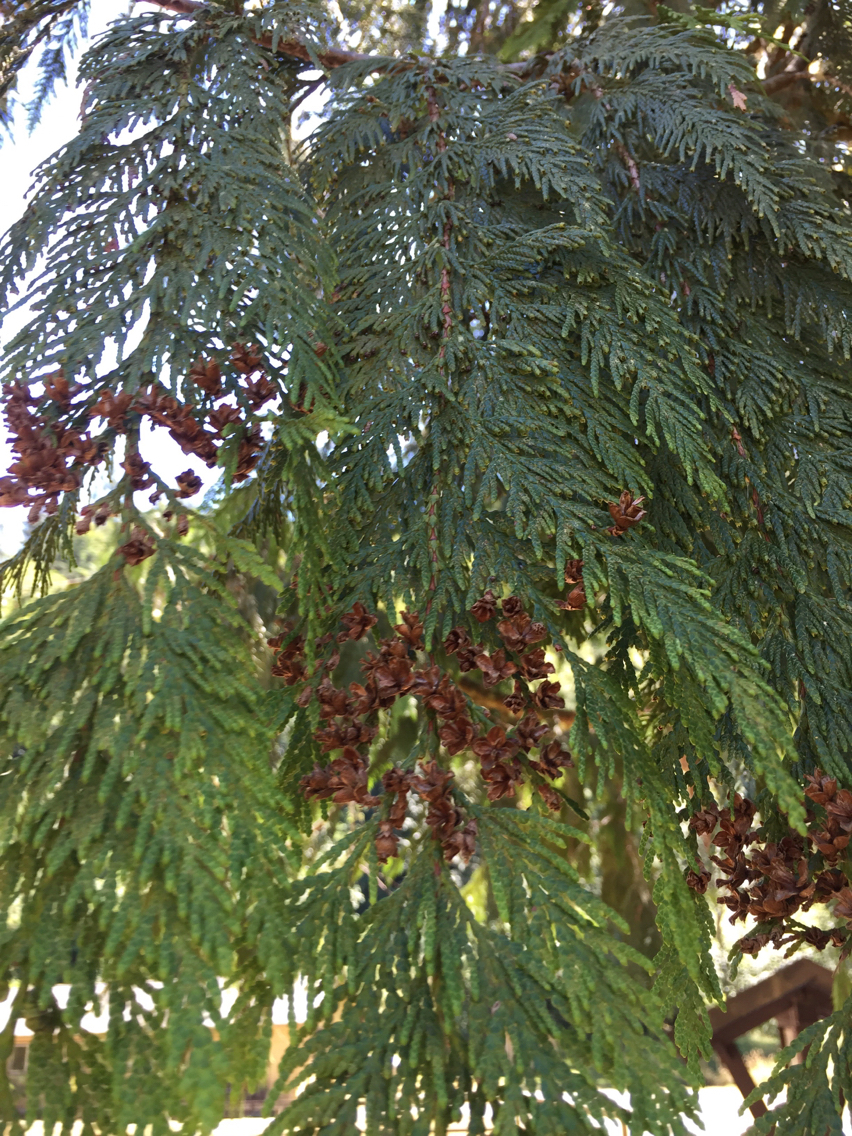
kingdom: Plantae
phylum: Tracheophyta
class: Pinopsida
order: Pinales
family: Cupressaceae
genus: Thuja
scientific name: Thuja plicata
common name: Western red-cedar
